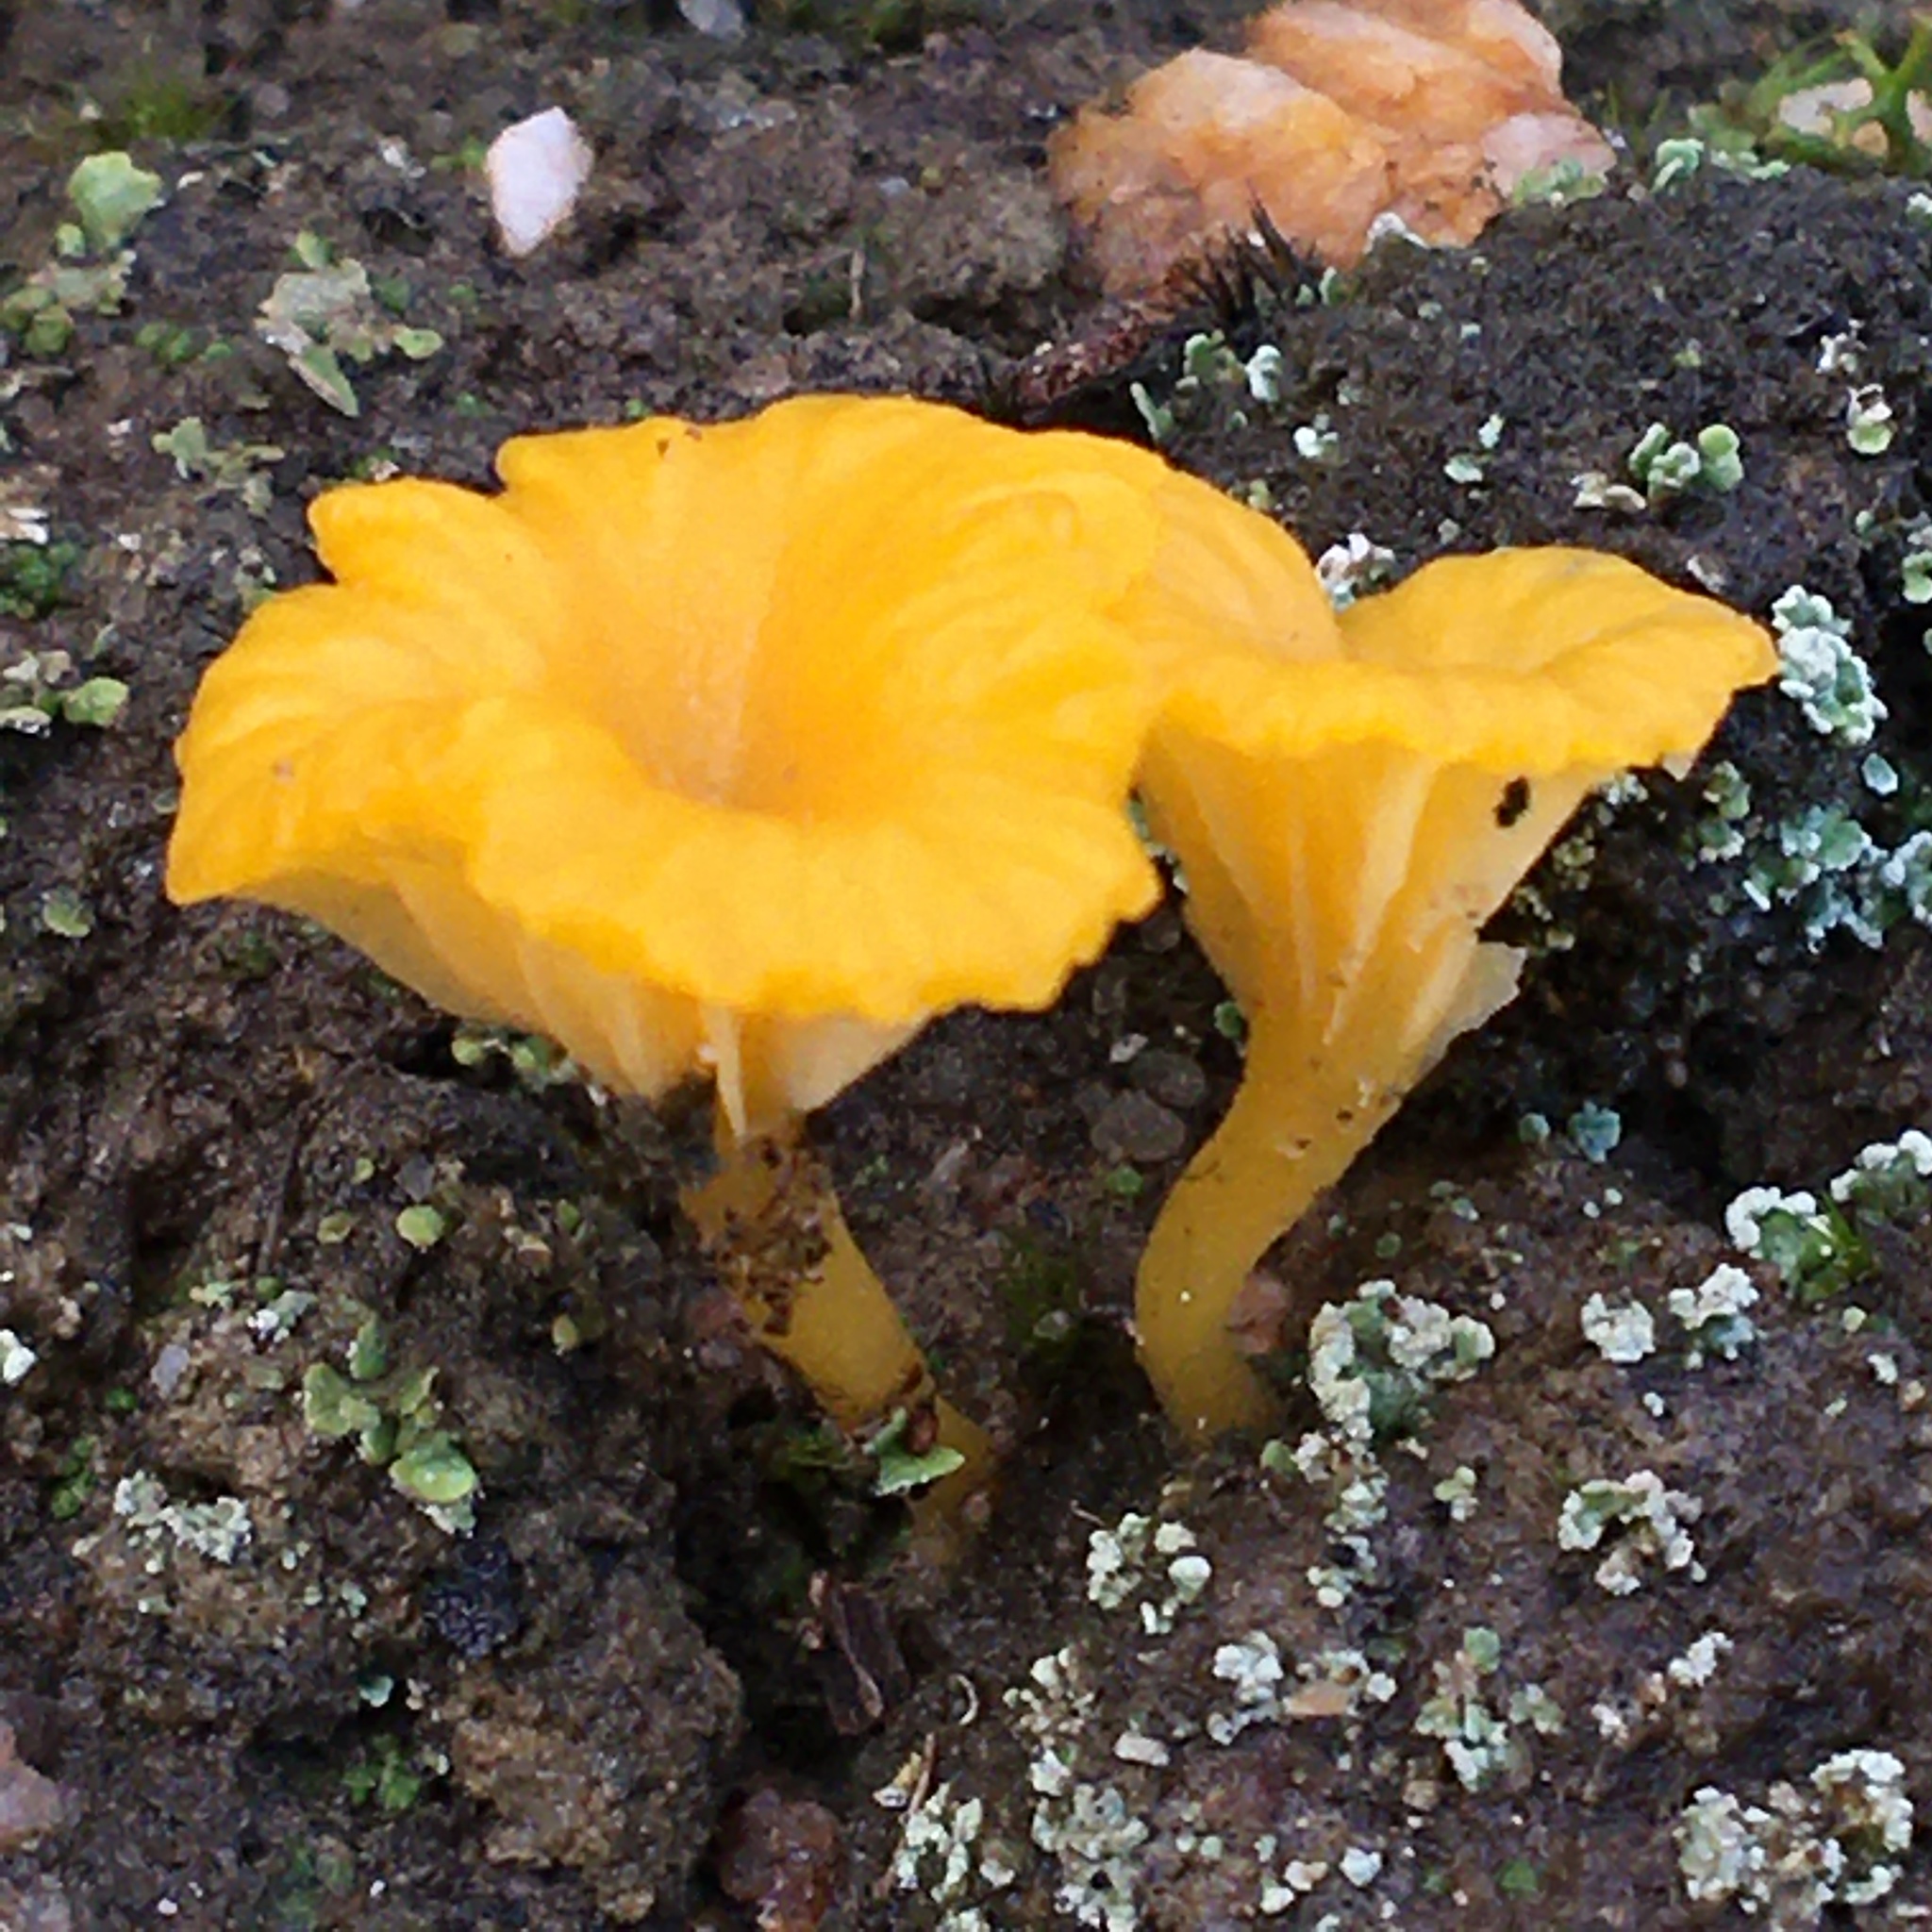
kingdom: Fungi
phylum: Basidiomycota
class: Agaricomycetes
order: Agaricales
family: Hygrophoraceae
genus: Lichenomphalia
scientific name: Lichenomphalia chromacea
